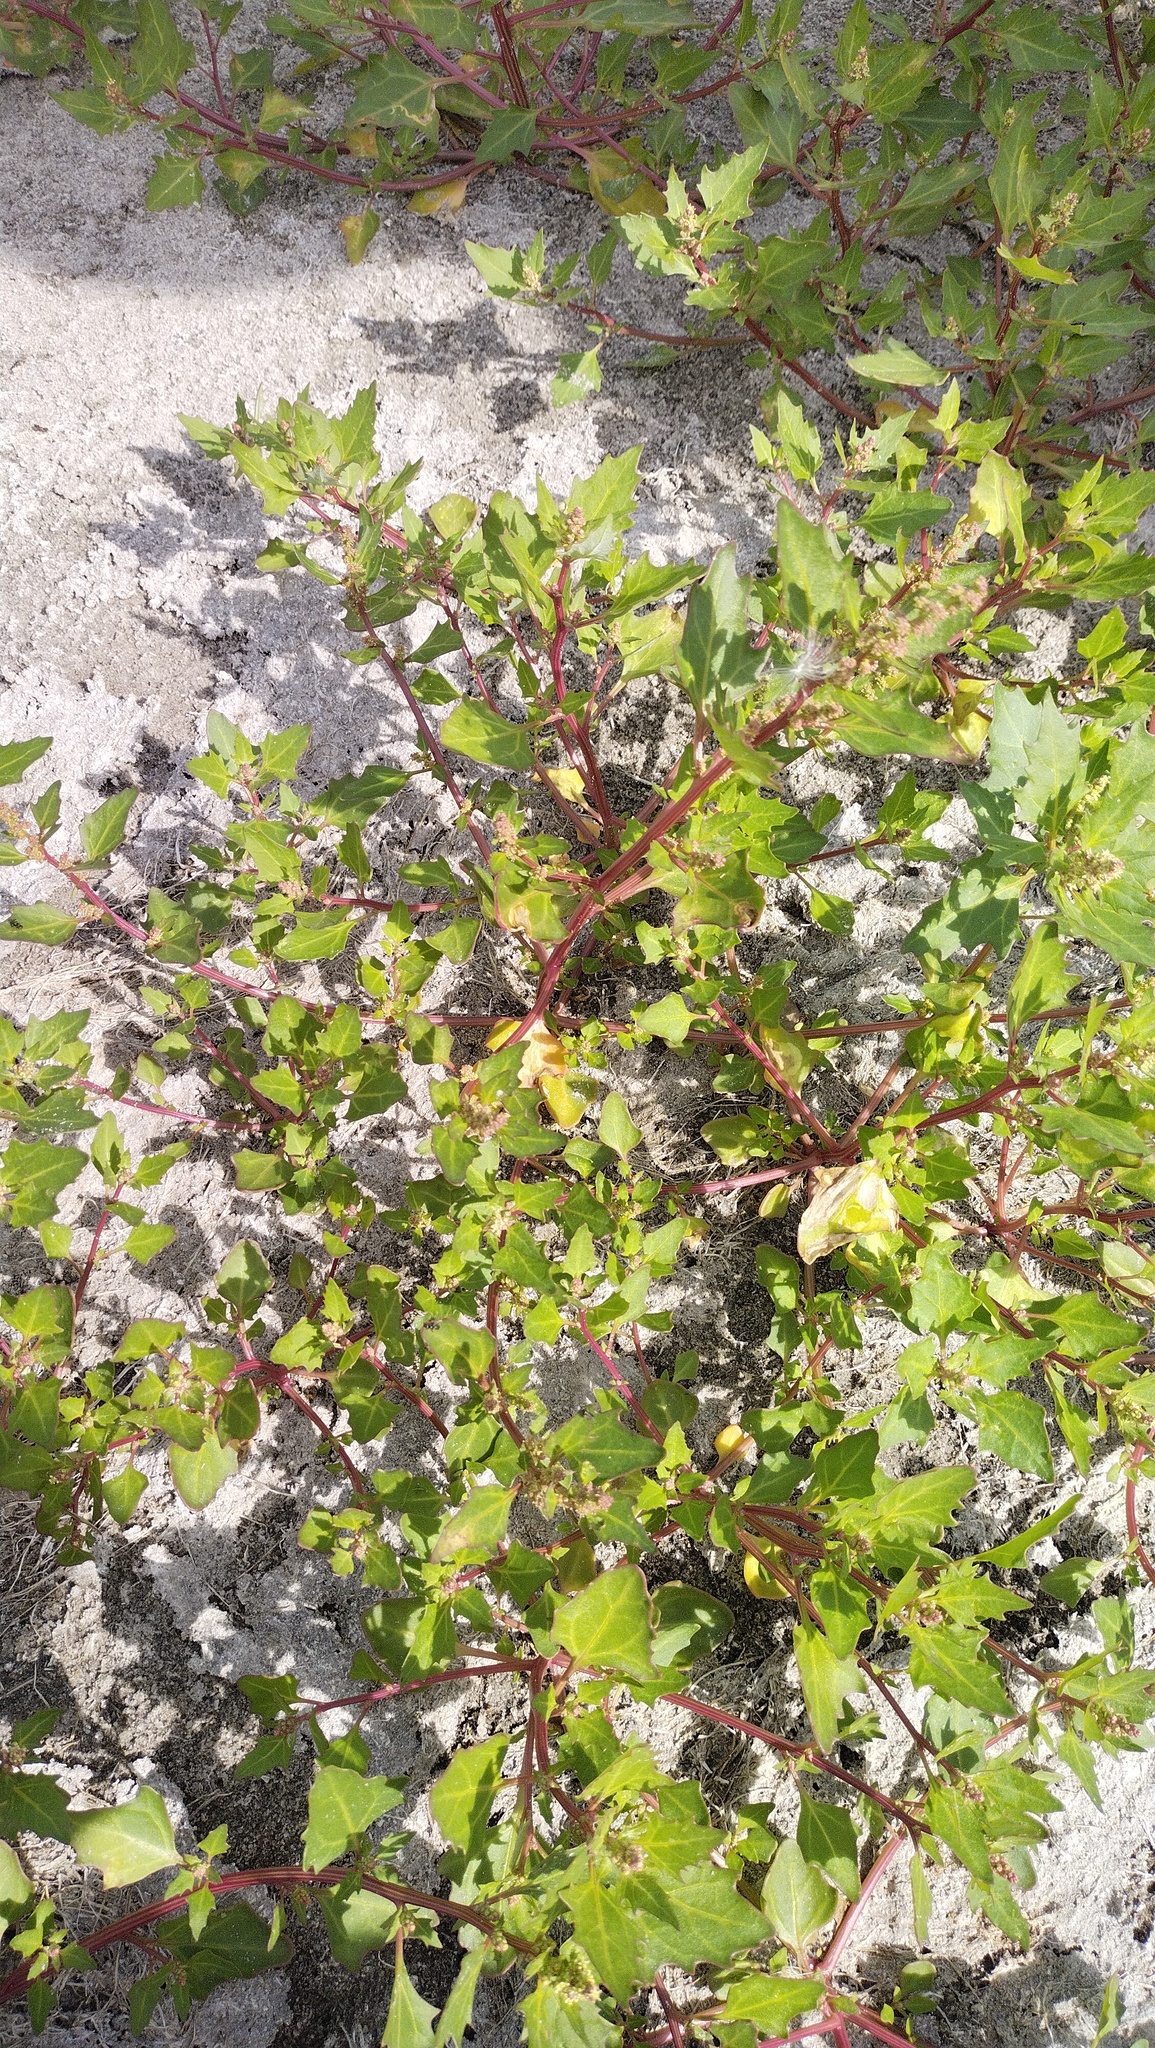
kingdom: Plantae
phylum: Tracheophyta
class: Magnoliopsida
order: Caryophyllales
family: Amaranthaceae
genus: Oxybasis
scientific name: Oxybasis rubra
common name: Red goosefoot
